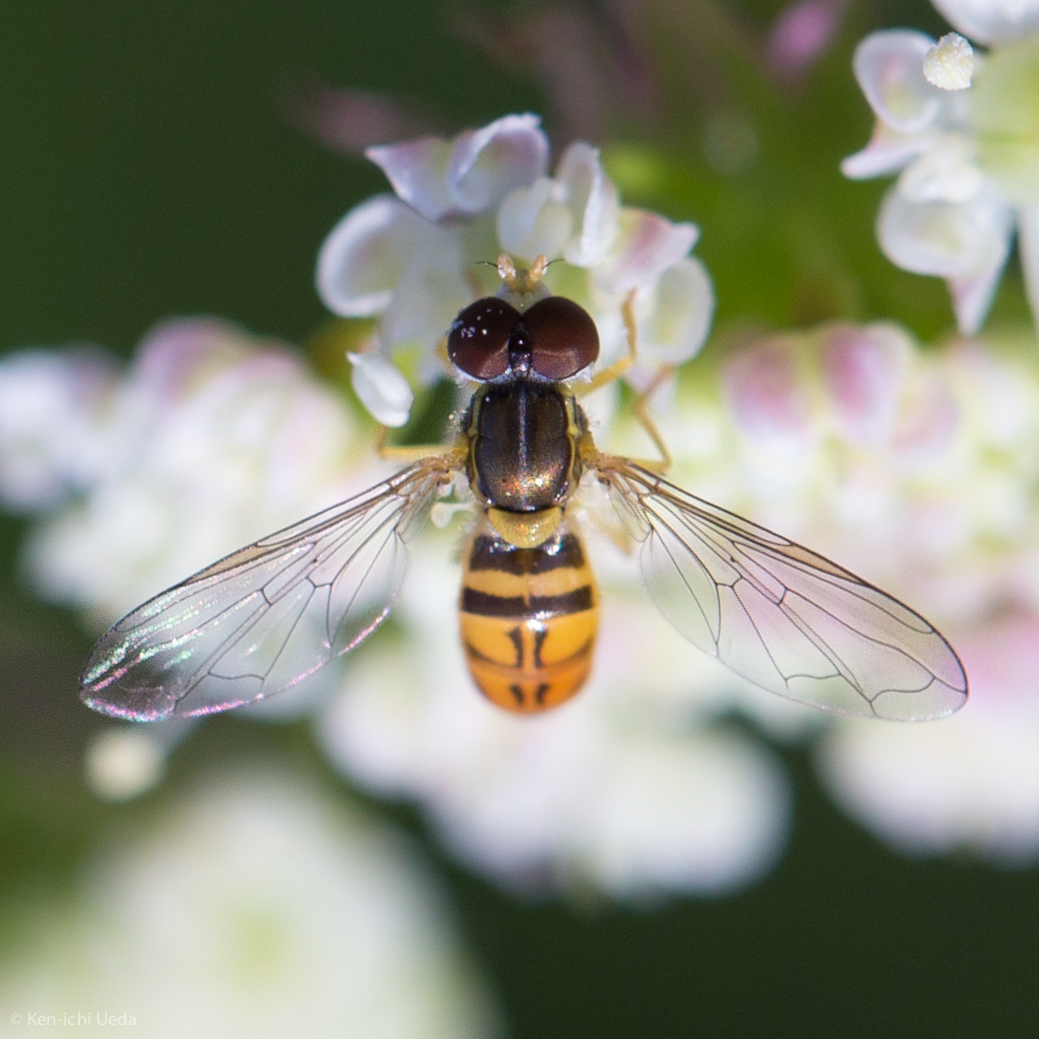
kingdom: Animalia
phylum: Arthropoda
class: Insecta
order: Diptera
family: Syrphidae
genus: Toxomerus
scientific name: Toxomerus marginatus
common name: Syrphid fly
